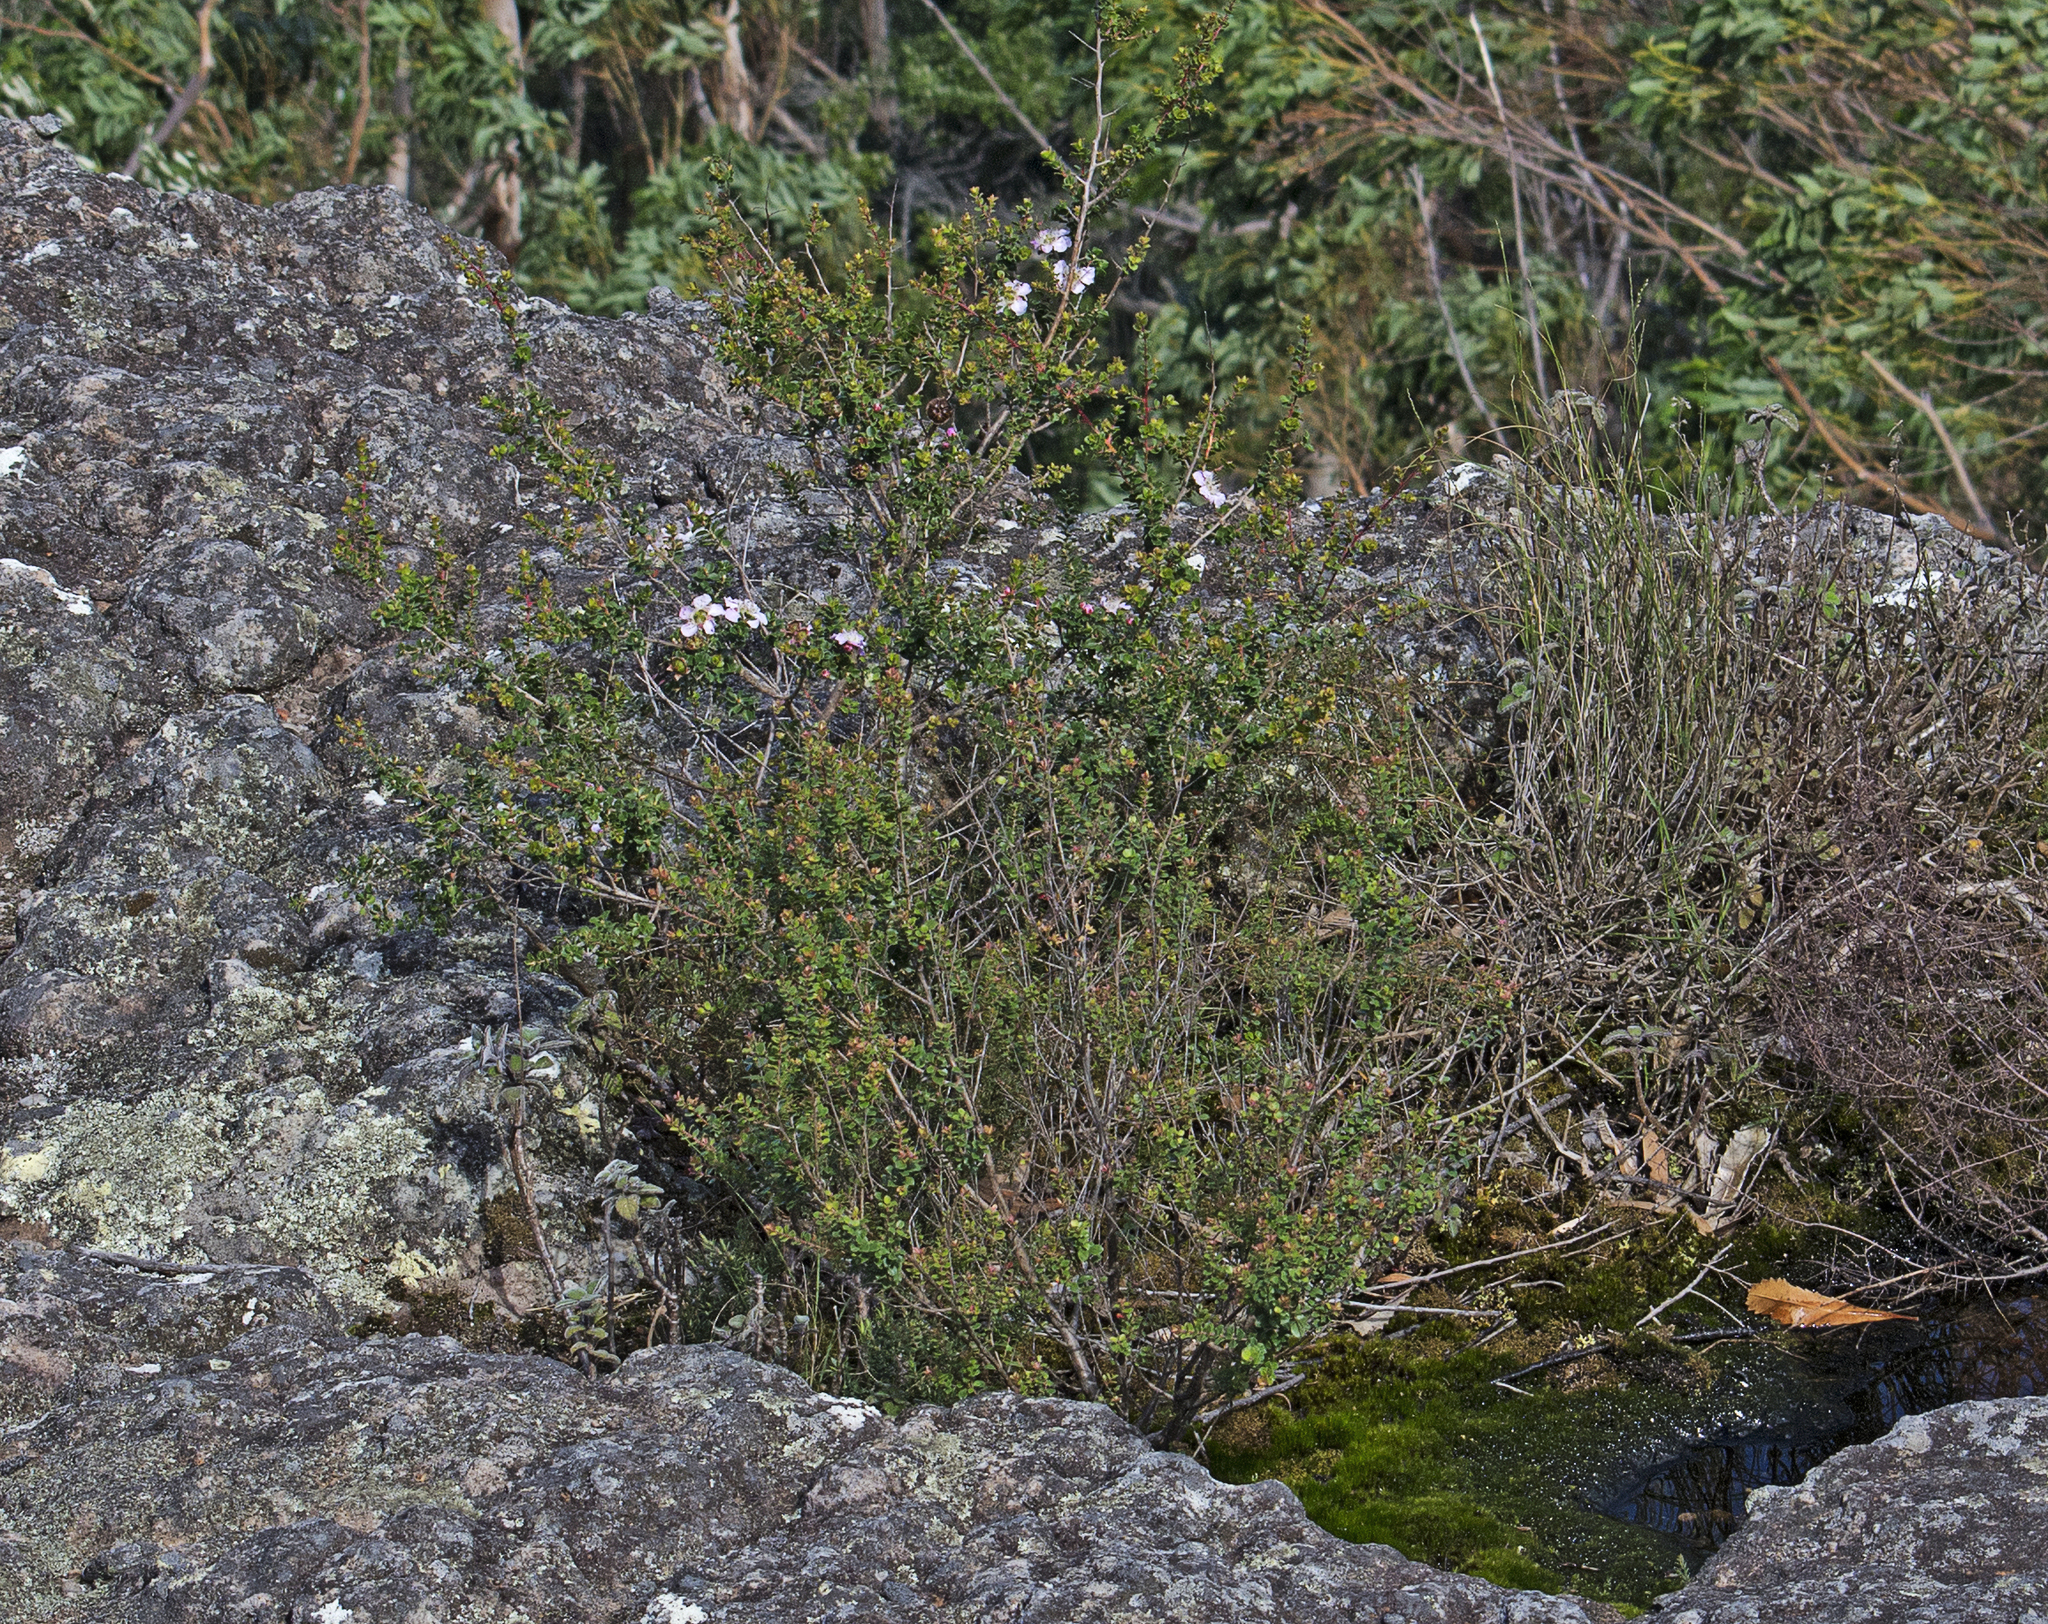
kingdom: Plantae
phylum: Tracheophyta
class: Magnoliopsida
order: Myrtales
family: Myrtaceae
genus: Leptospermum
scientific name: Leptospermum rotundifolium
